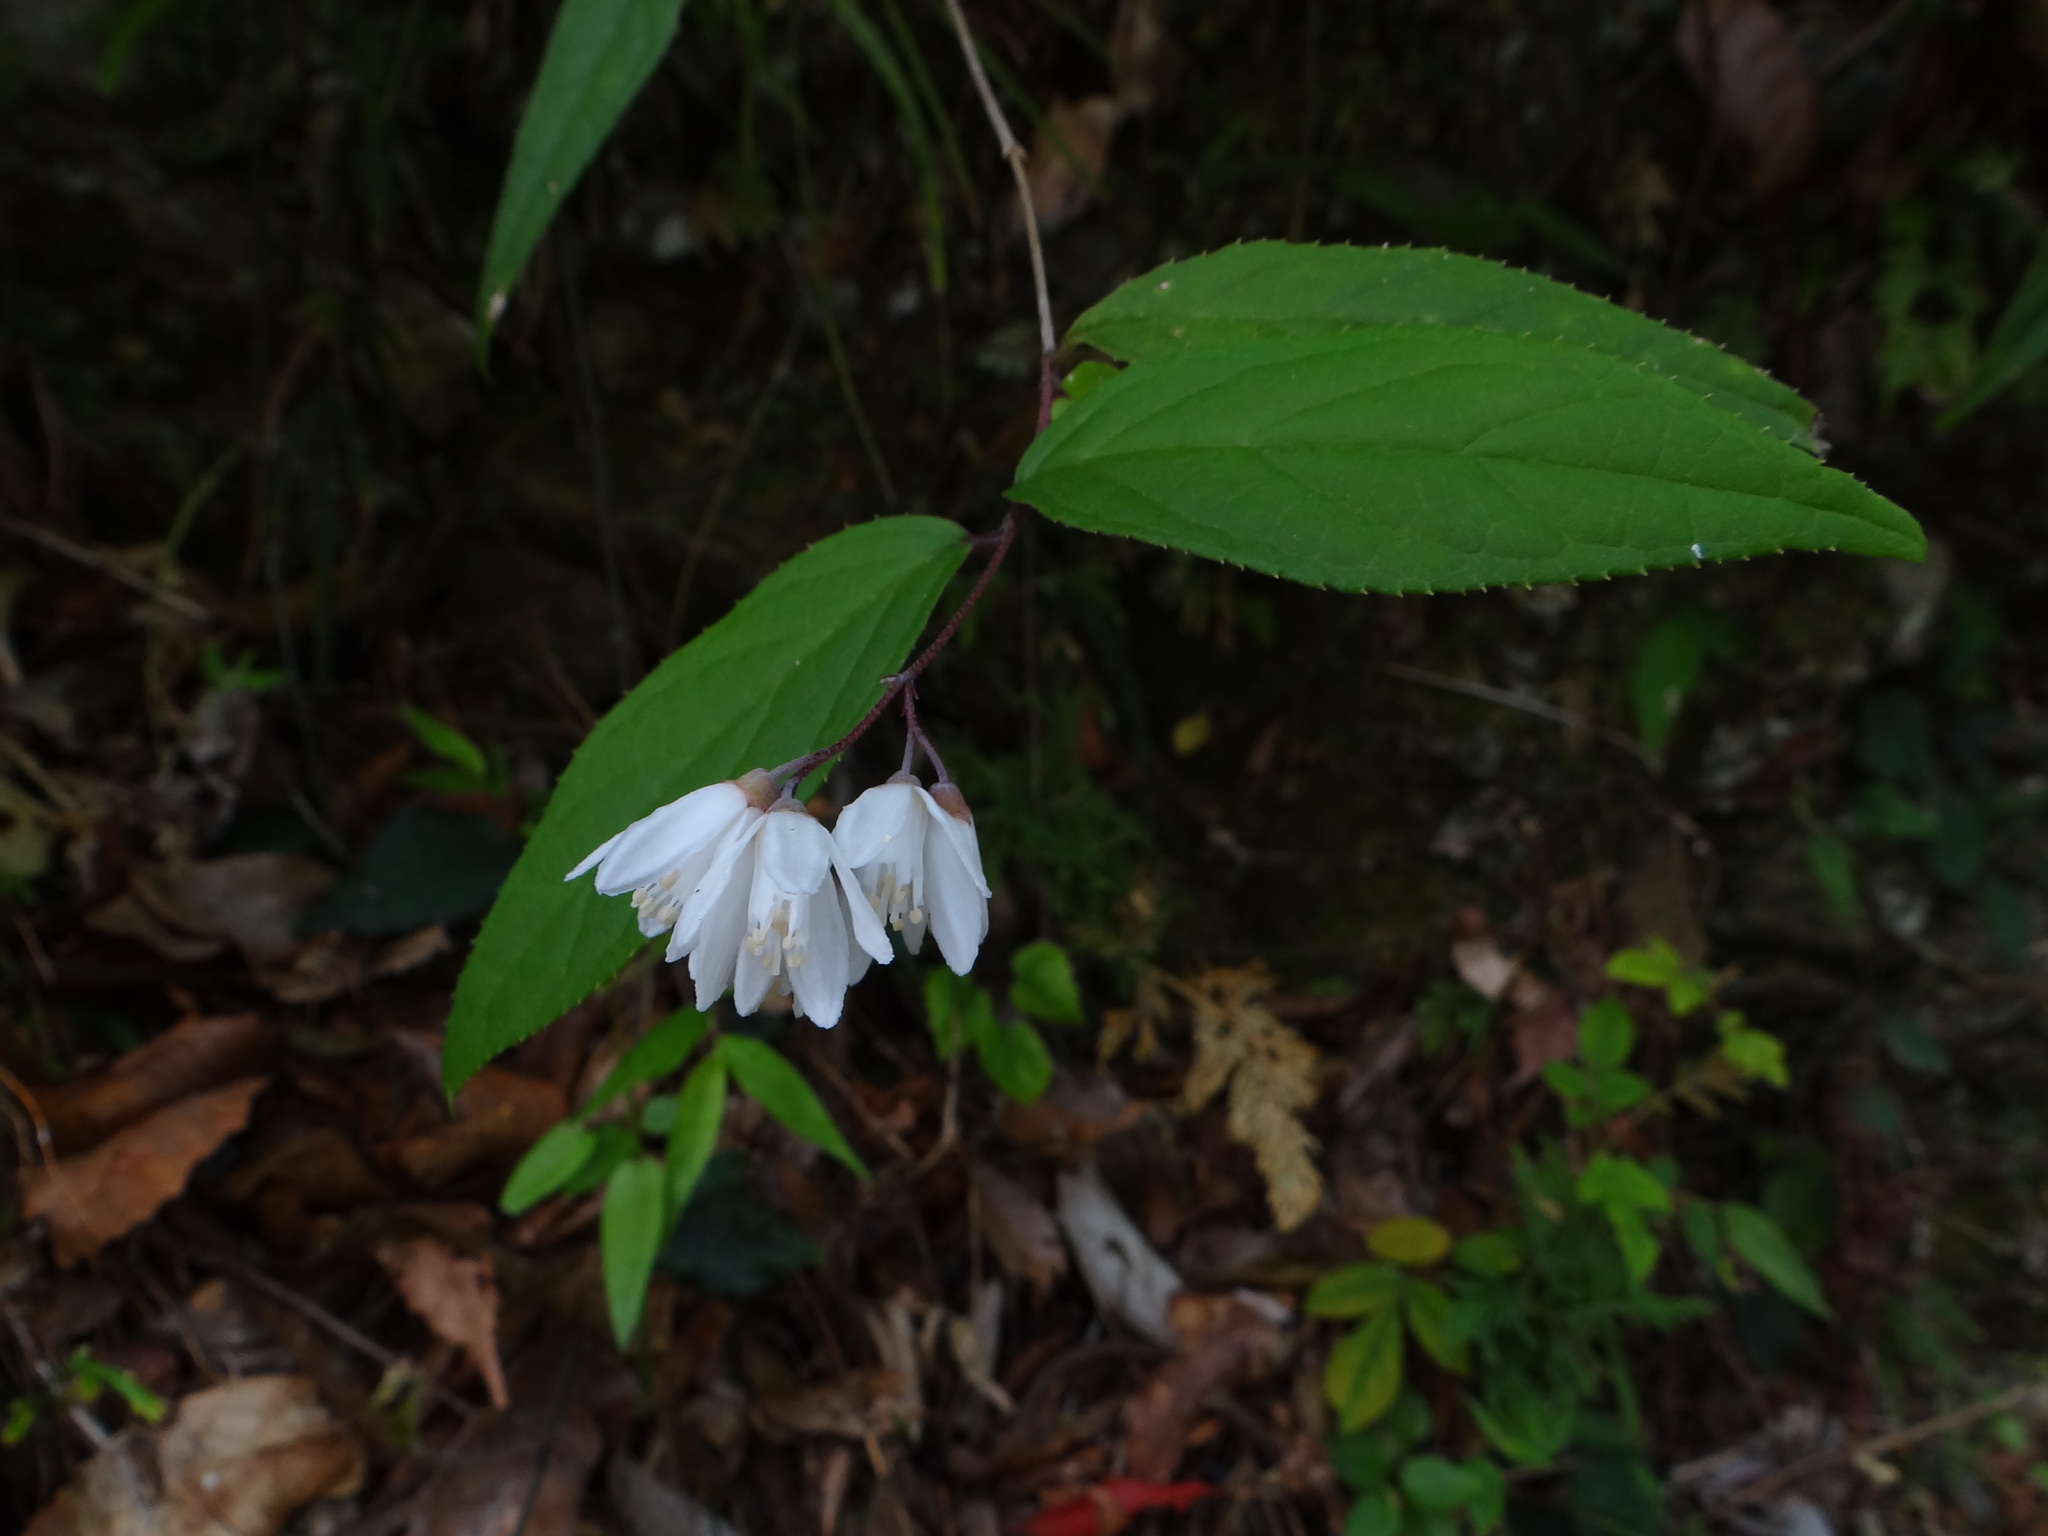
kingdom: Plantae
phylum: Tracheophyta
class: Magnoliopsida
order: Cornales
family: Hydrangeaceae
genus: Deutzia
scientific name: Deutzia taiwanensis
